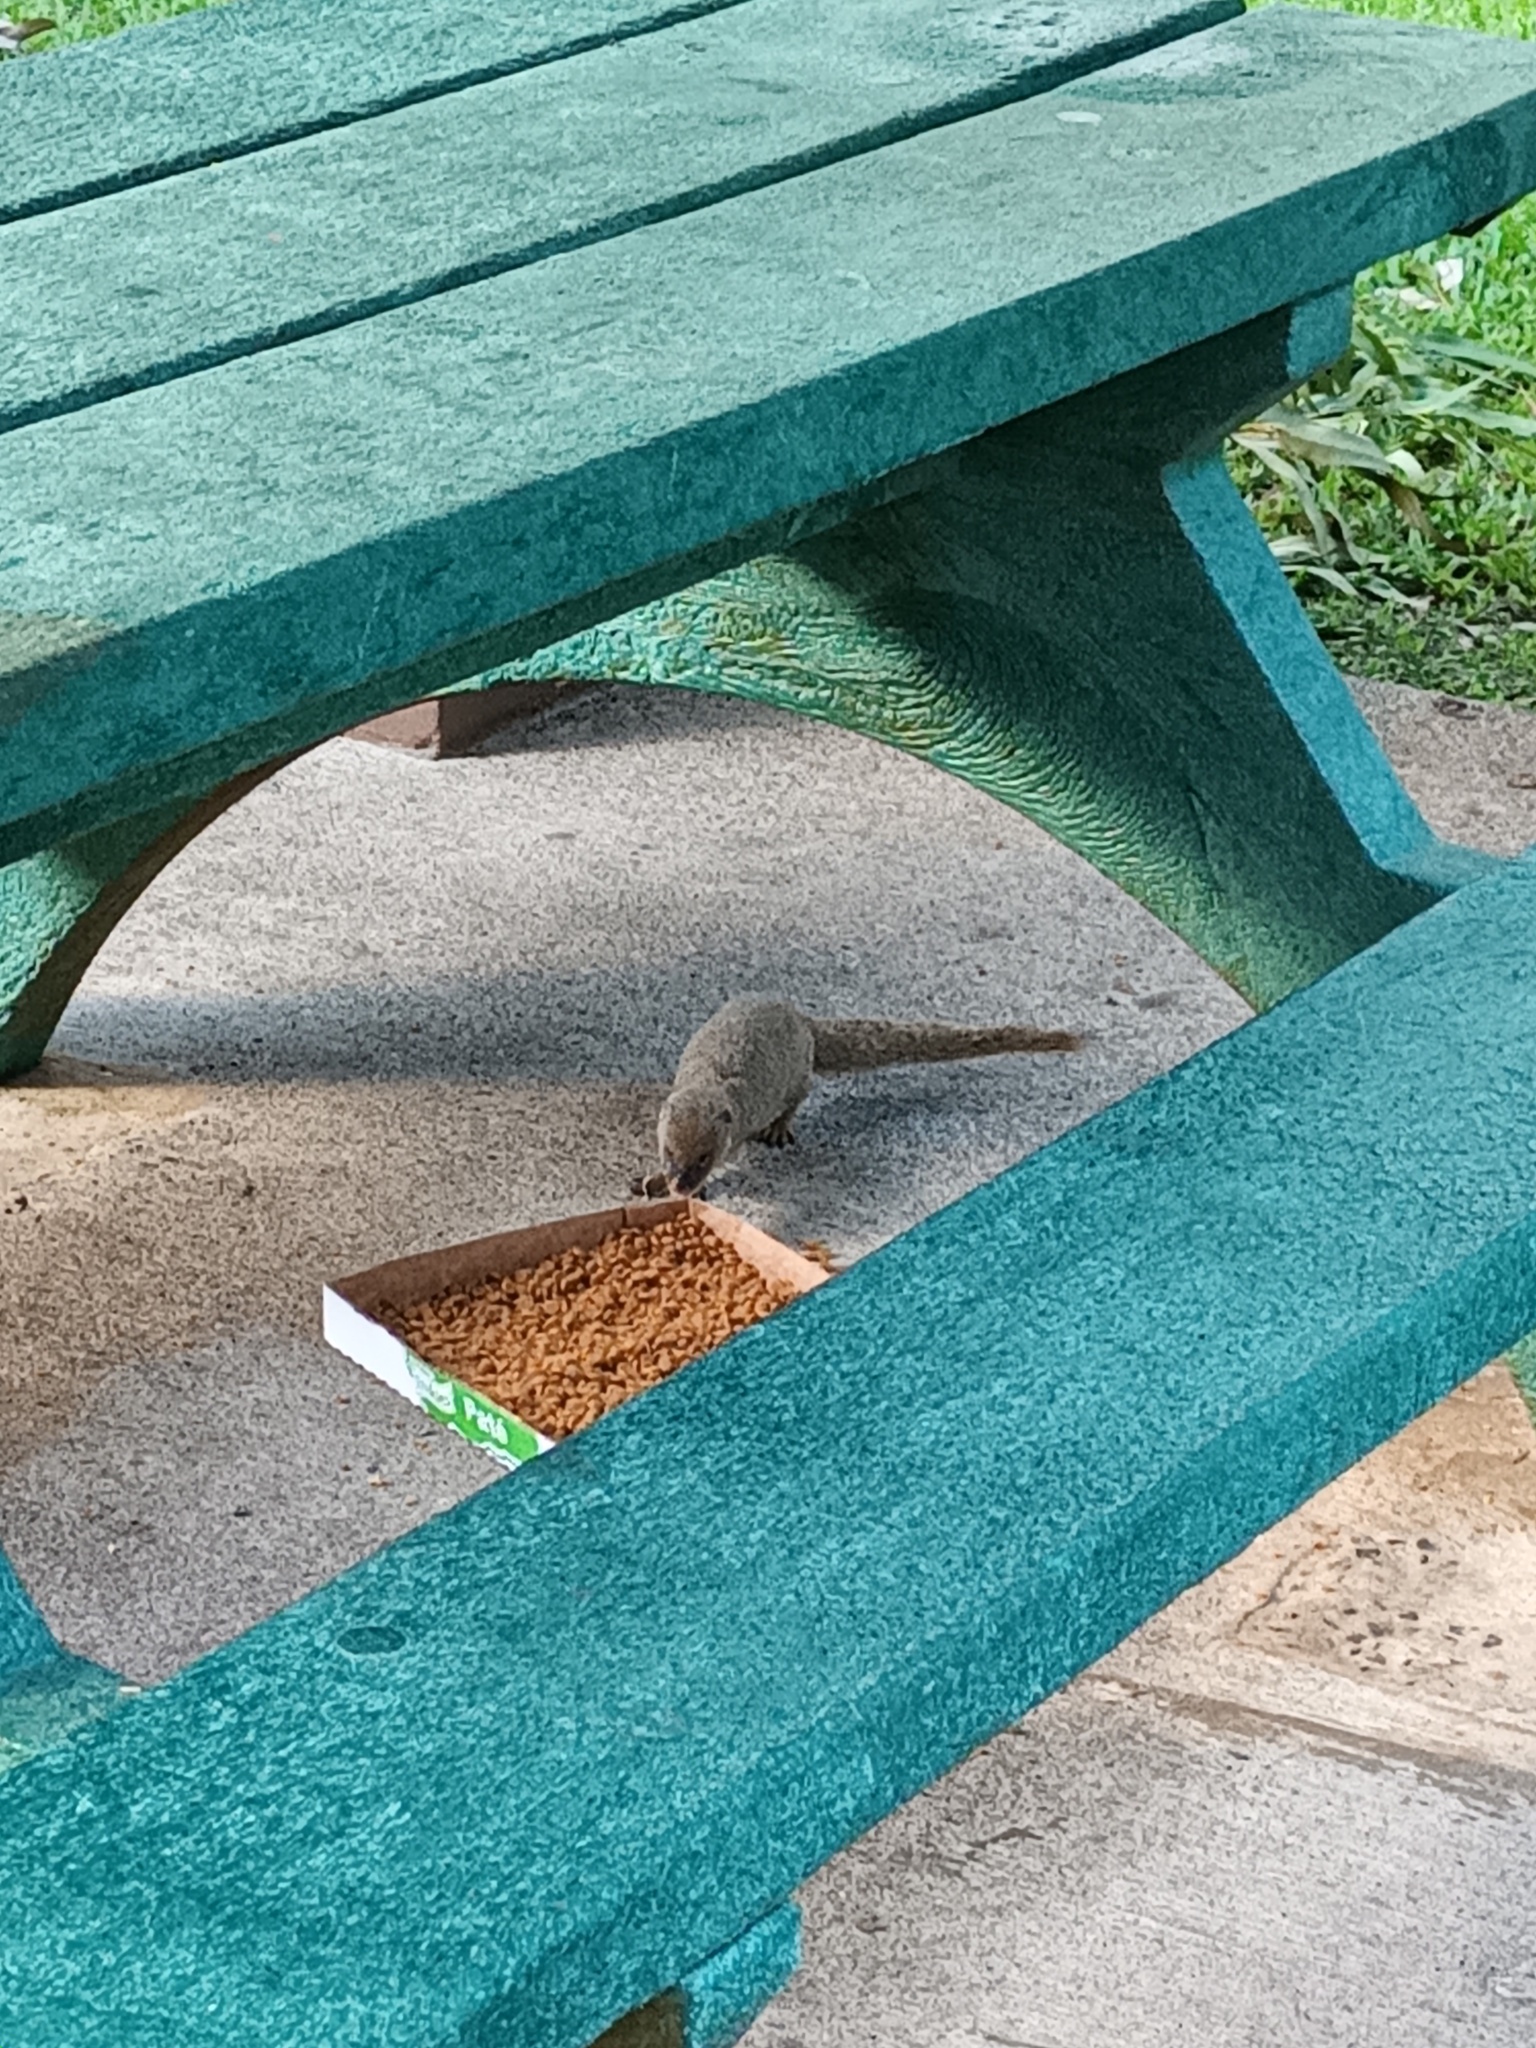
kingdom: Animalia
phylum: Chordata
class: Mammalia
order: Carnivora
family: Herpestidae
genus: Herpestes
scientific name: Herpestes javanicus
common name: Small asian mongoose
